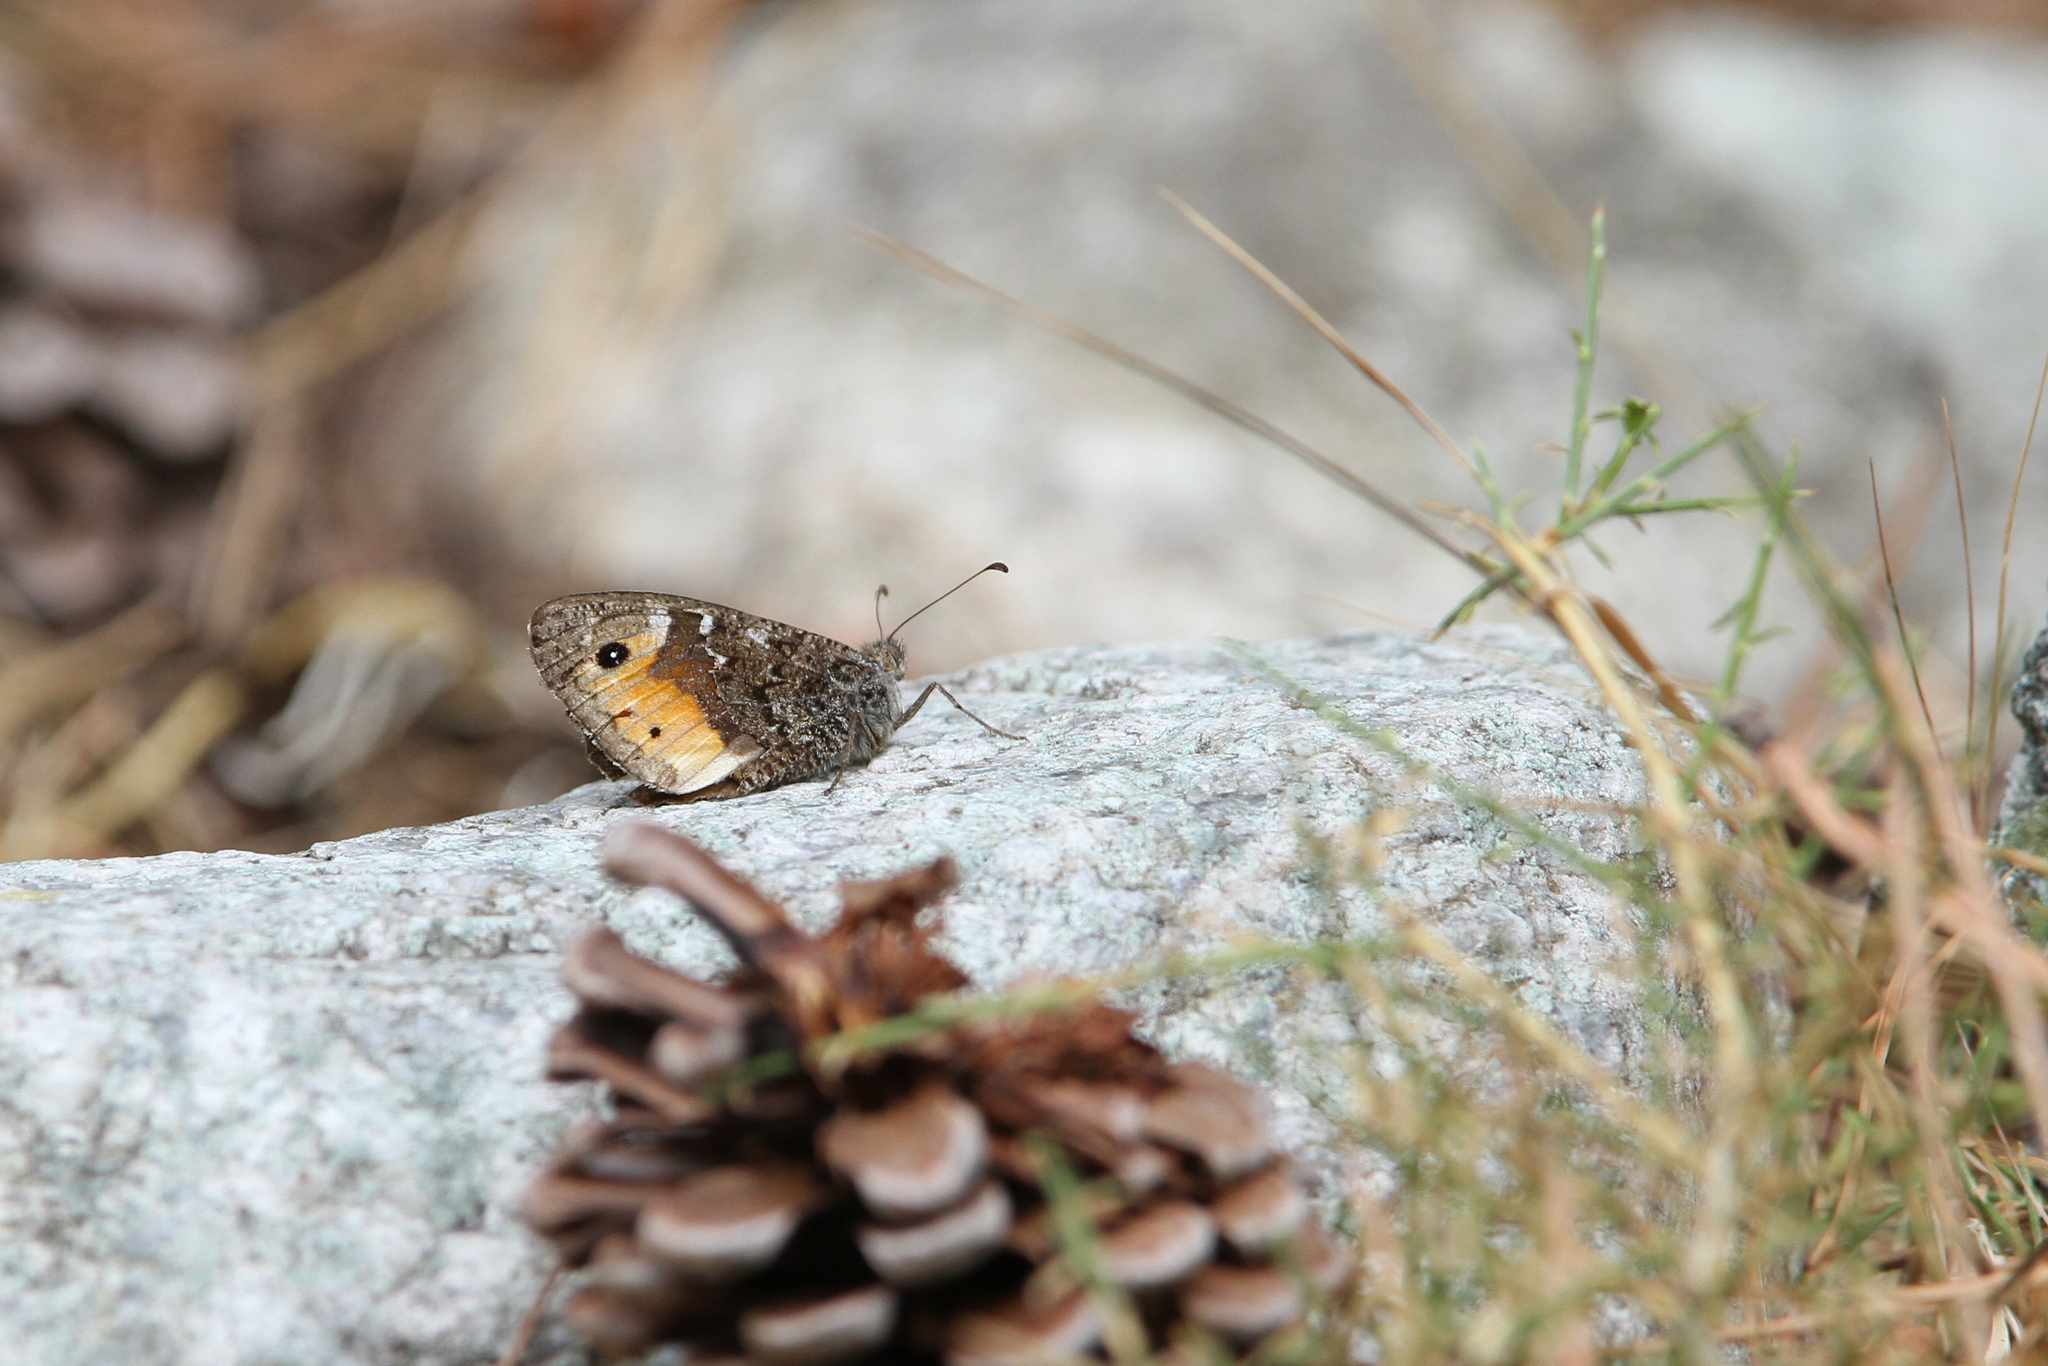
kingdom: Animalia
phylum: Arthropoda
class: Insecta
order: Lepidoptera
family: Nymphalidae
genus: Hipparchia
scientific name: Hipparchia neomiris
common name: Corsican grayling
